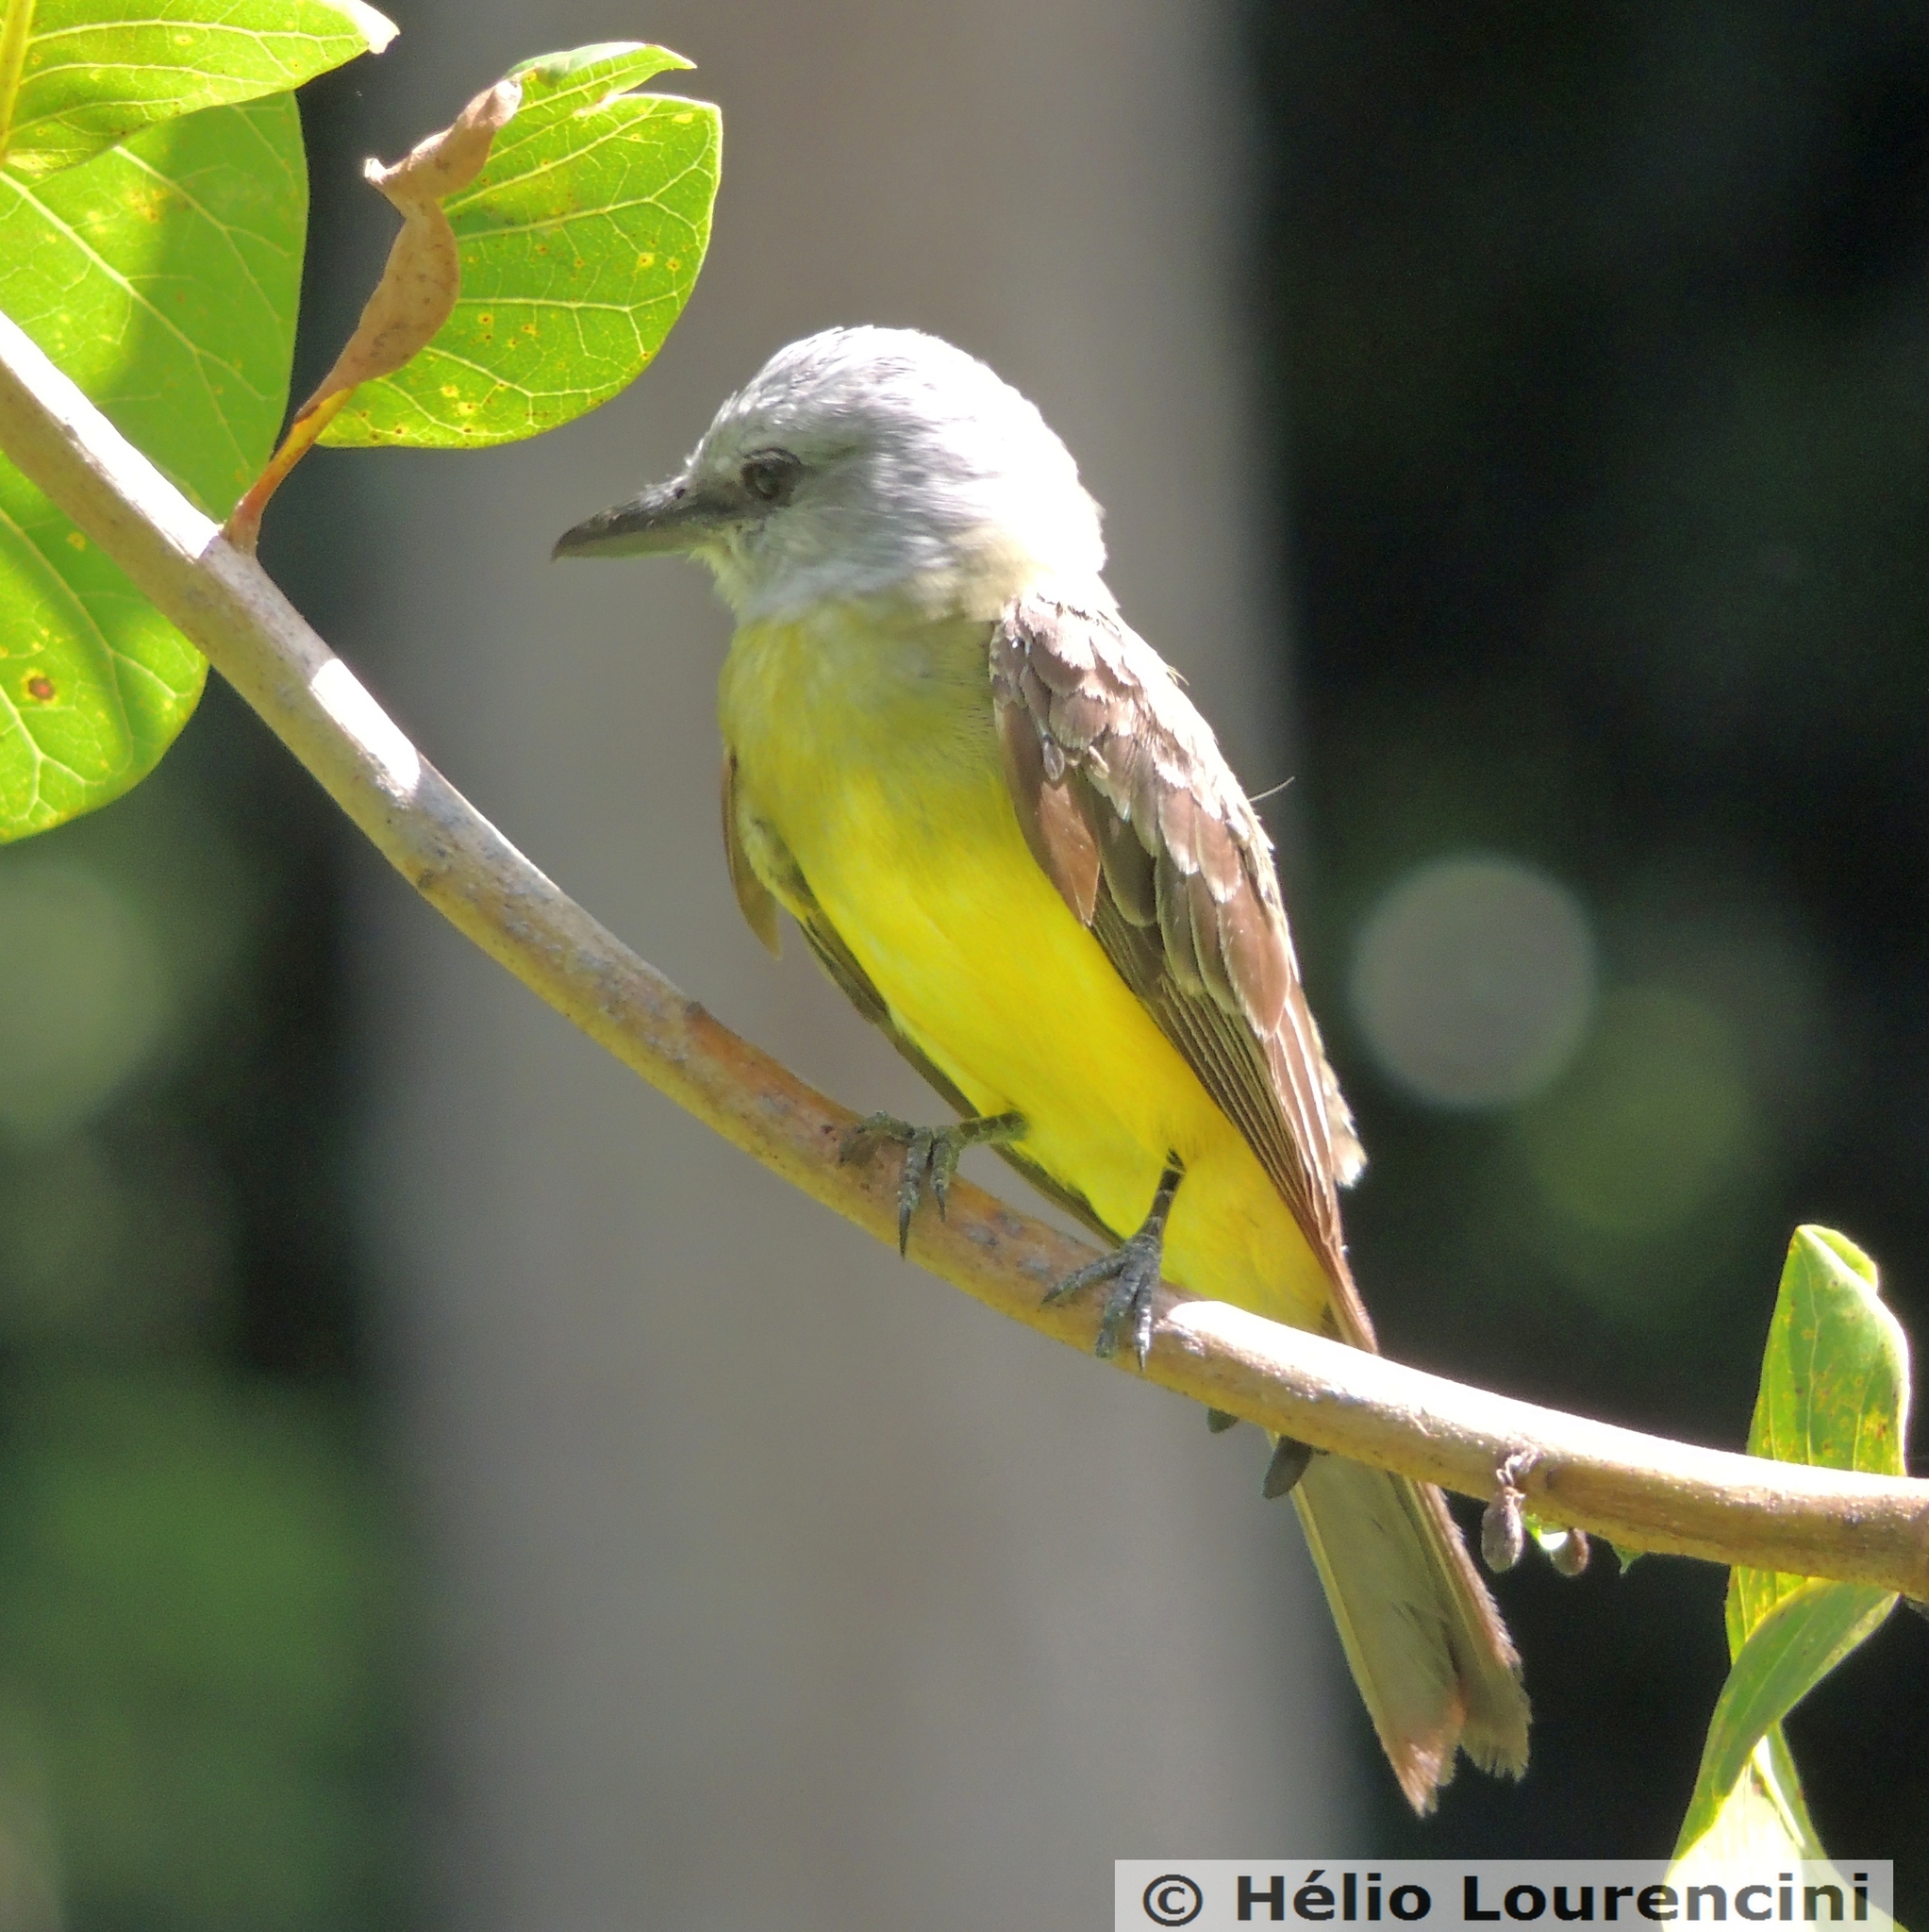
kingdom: Animalia
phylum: Chordata
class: Aves
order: Passeriformes
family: Tyrannidae
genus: Tyrannus
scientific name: Tyrannus melancholicus
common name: Tropical kingbird
